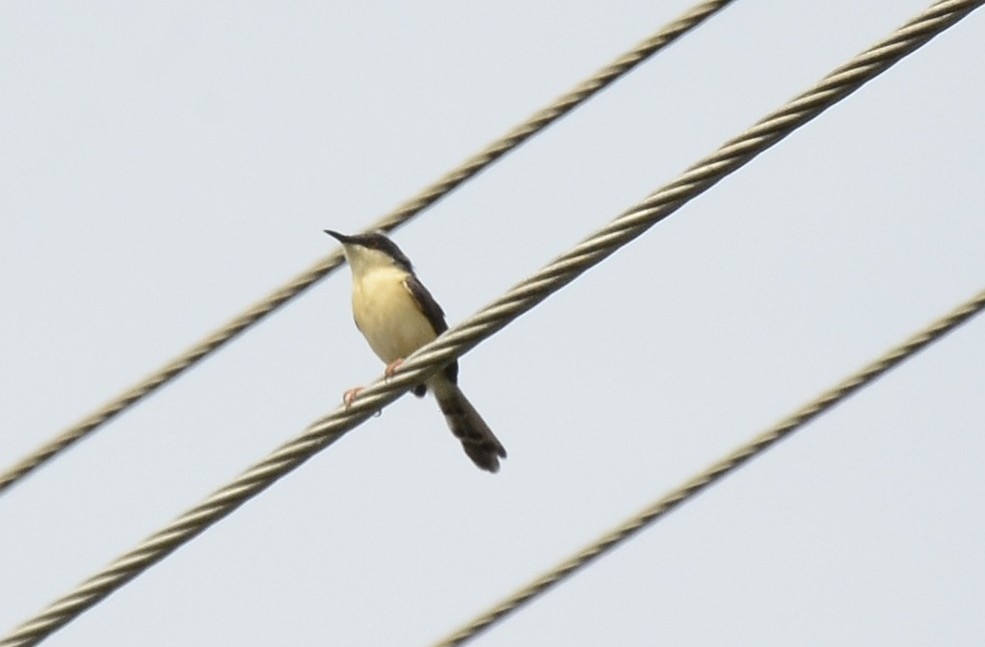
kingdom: Animalia
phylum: Chordata
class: Aves
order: Passeriformes
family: Cisticolidae
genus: Prinia
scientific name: Prinia socialis
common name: Ashy prinia
